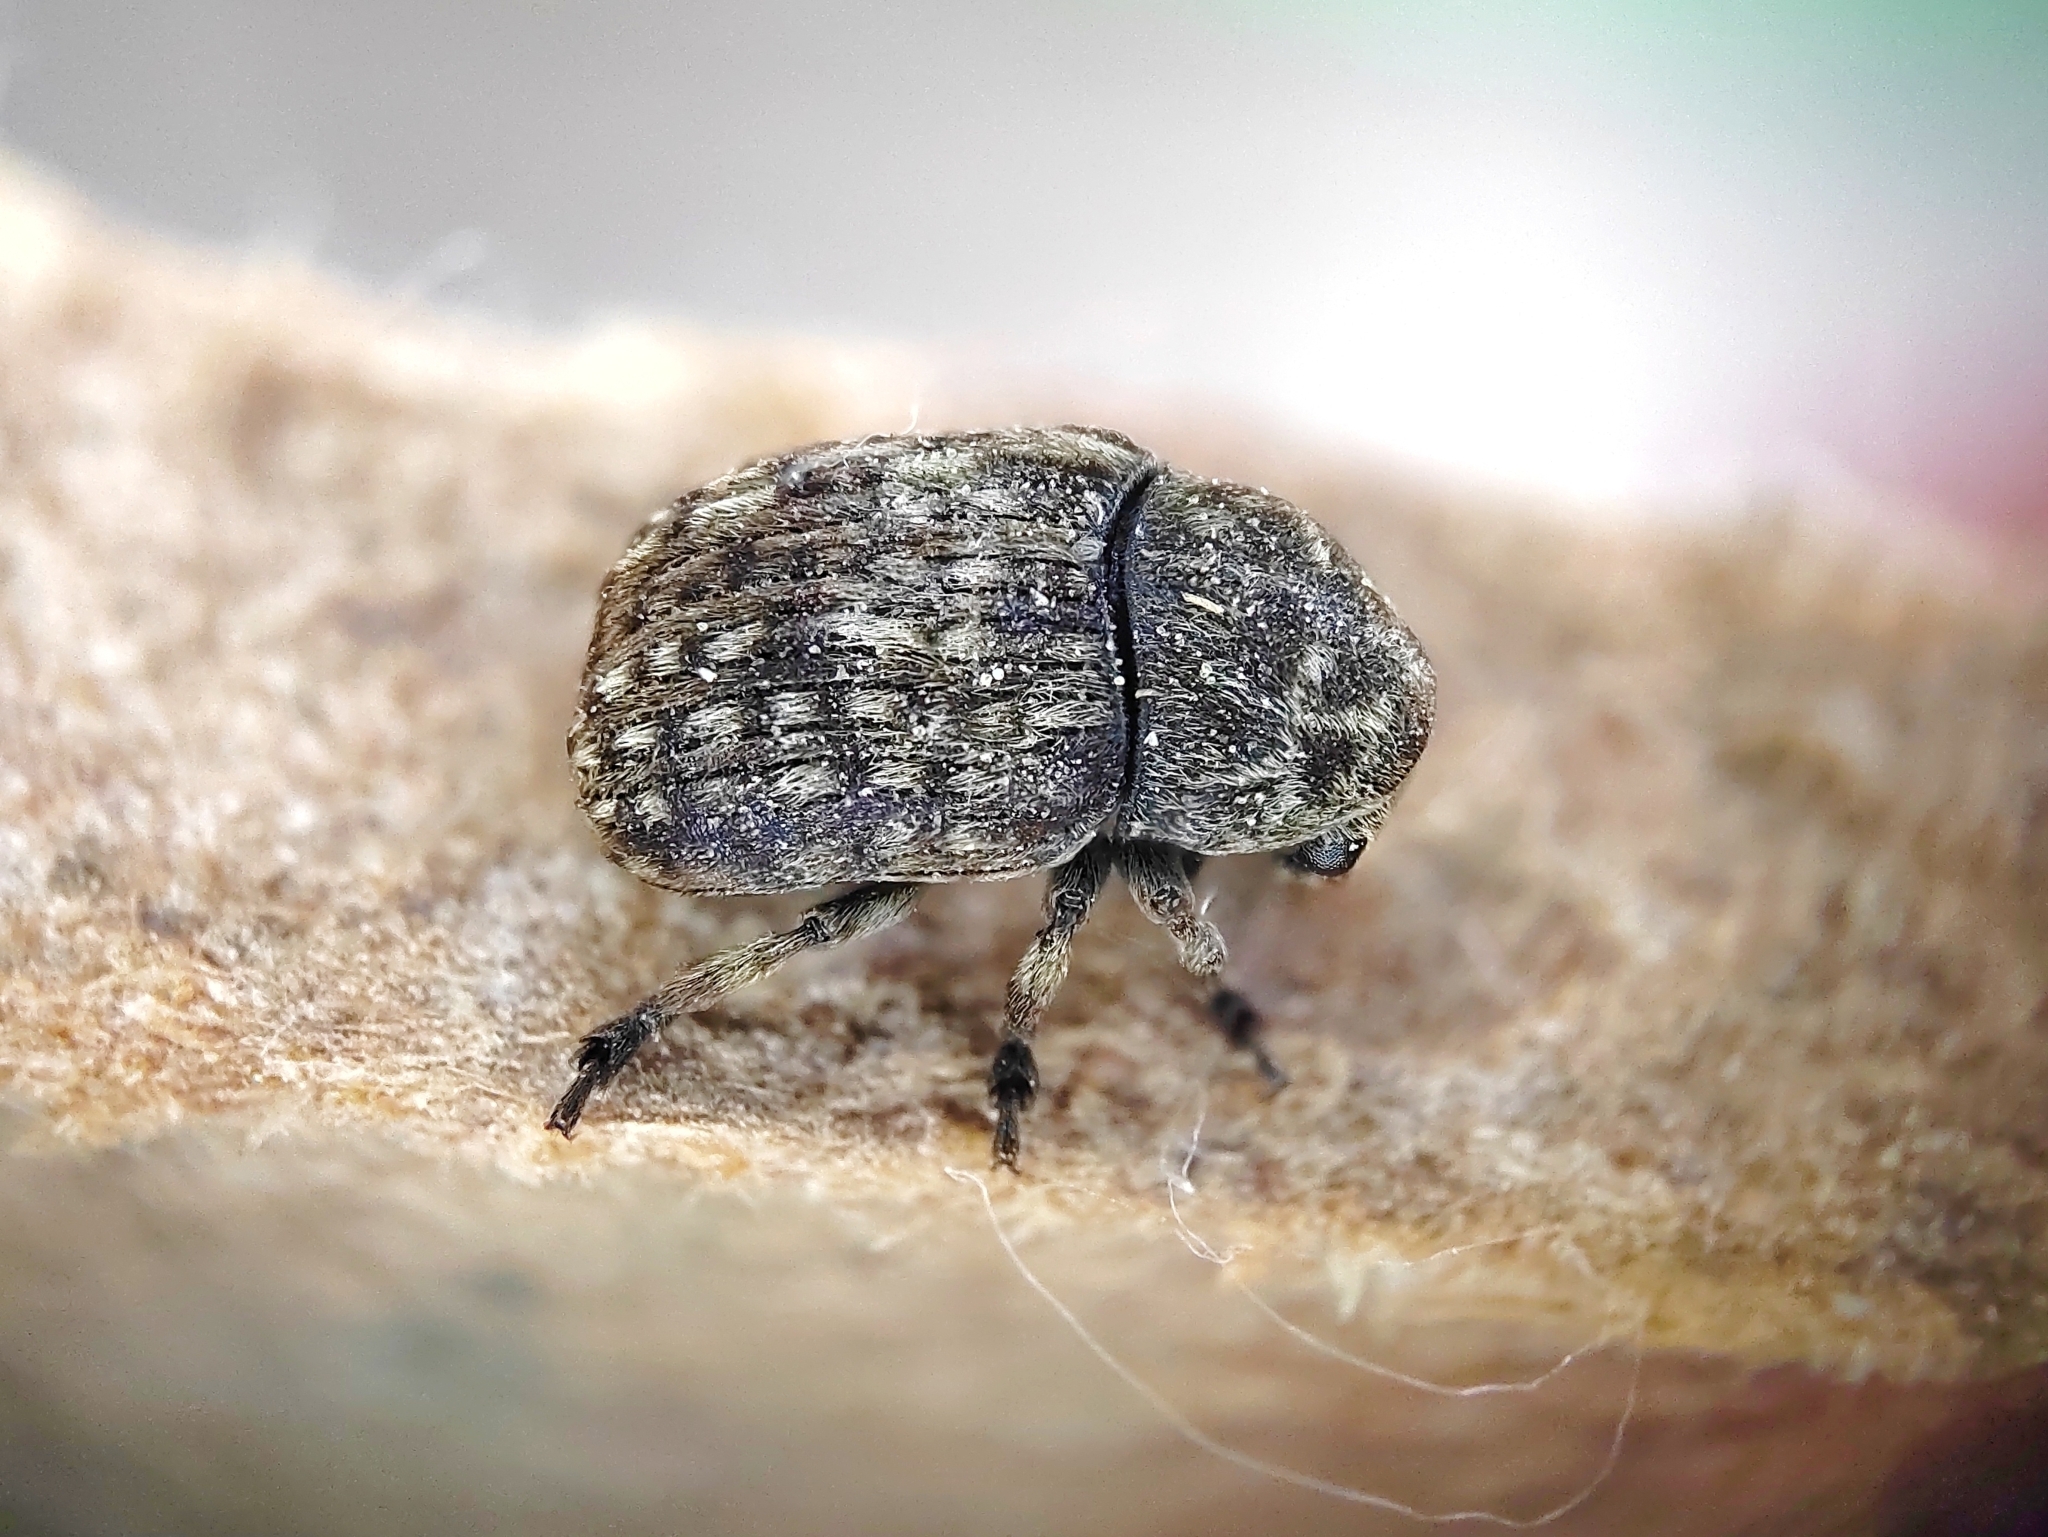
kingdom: Animalia
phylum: Arthropoda
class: Insecta
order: Coleoptera
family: Anthribidae
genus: Anthribus
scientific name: Anthribus nebulosus
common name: Fungus weevil
